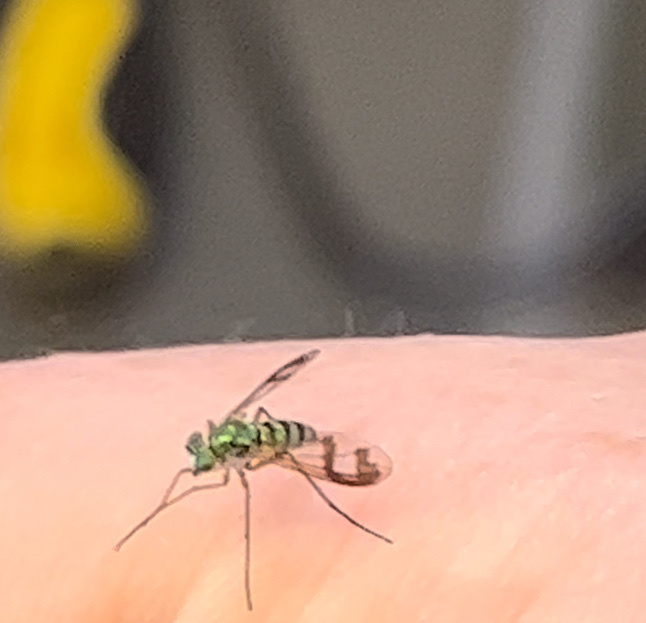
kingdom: Animalia
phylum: Arthropoda
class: Insecta
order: Diptera
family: Dolichopodidae
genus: Austrosciapus
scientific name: Austrosciapus proximus
